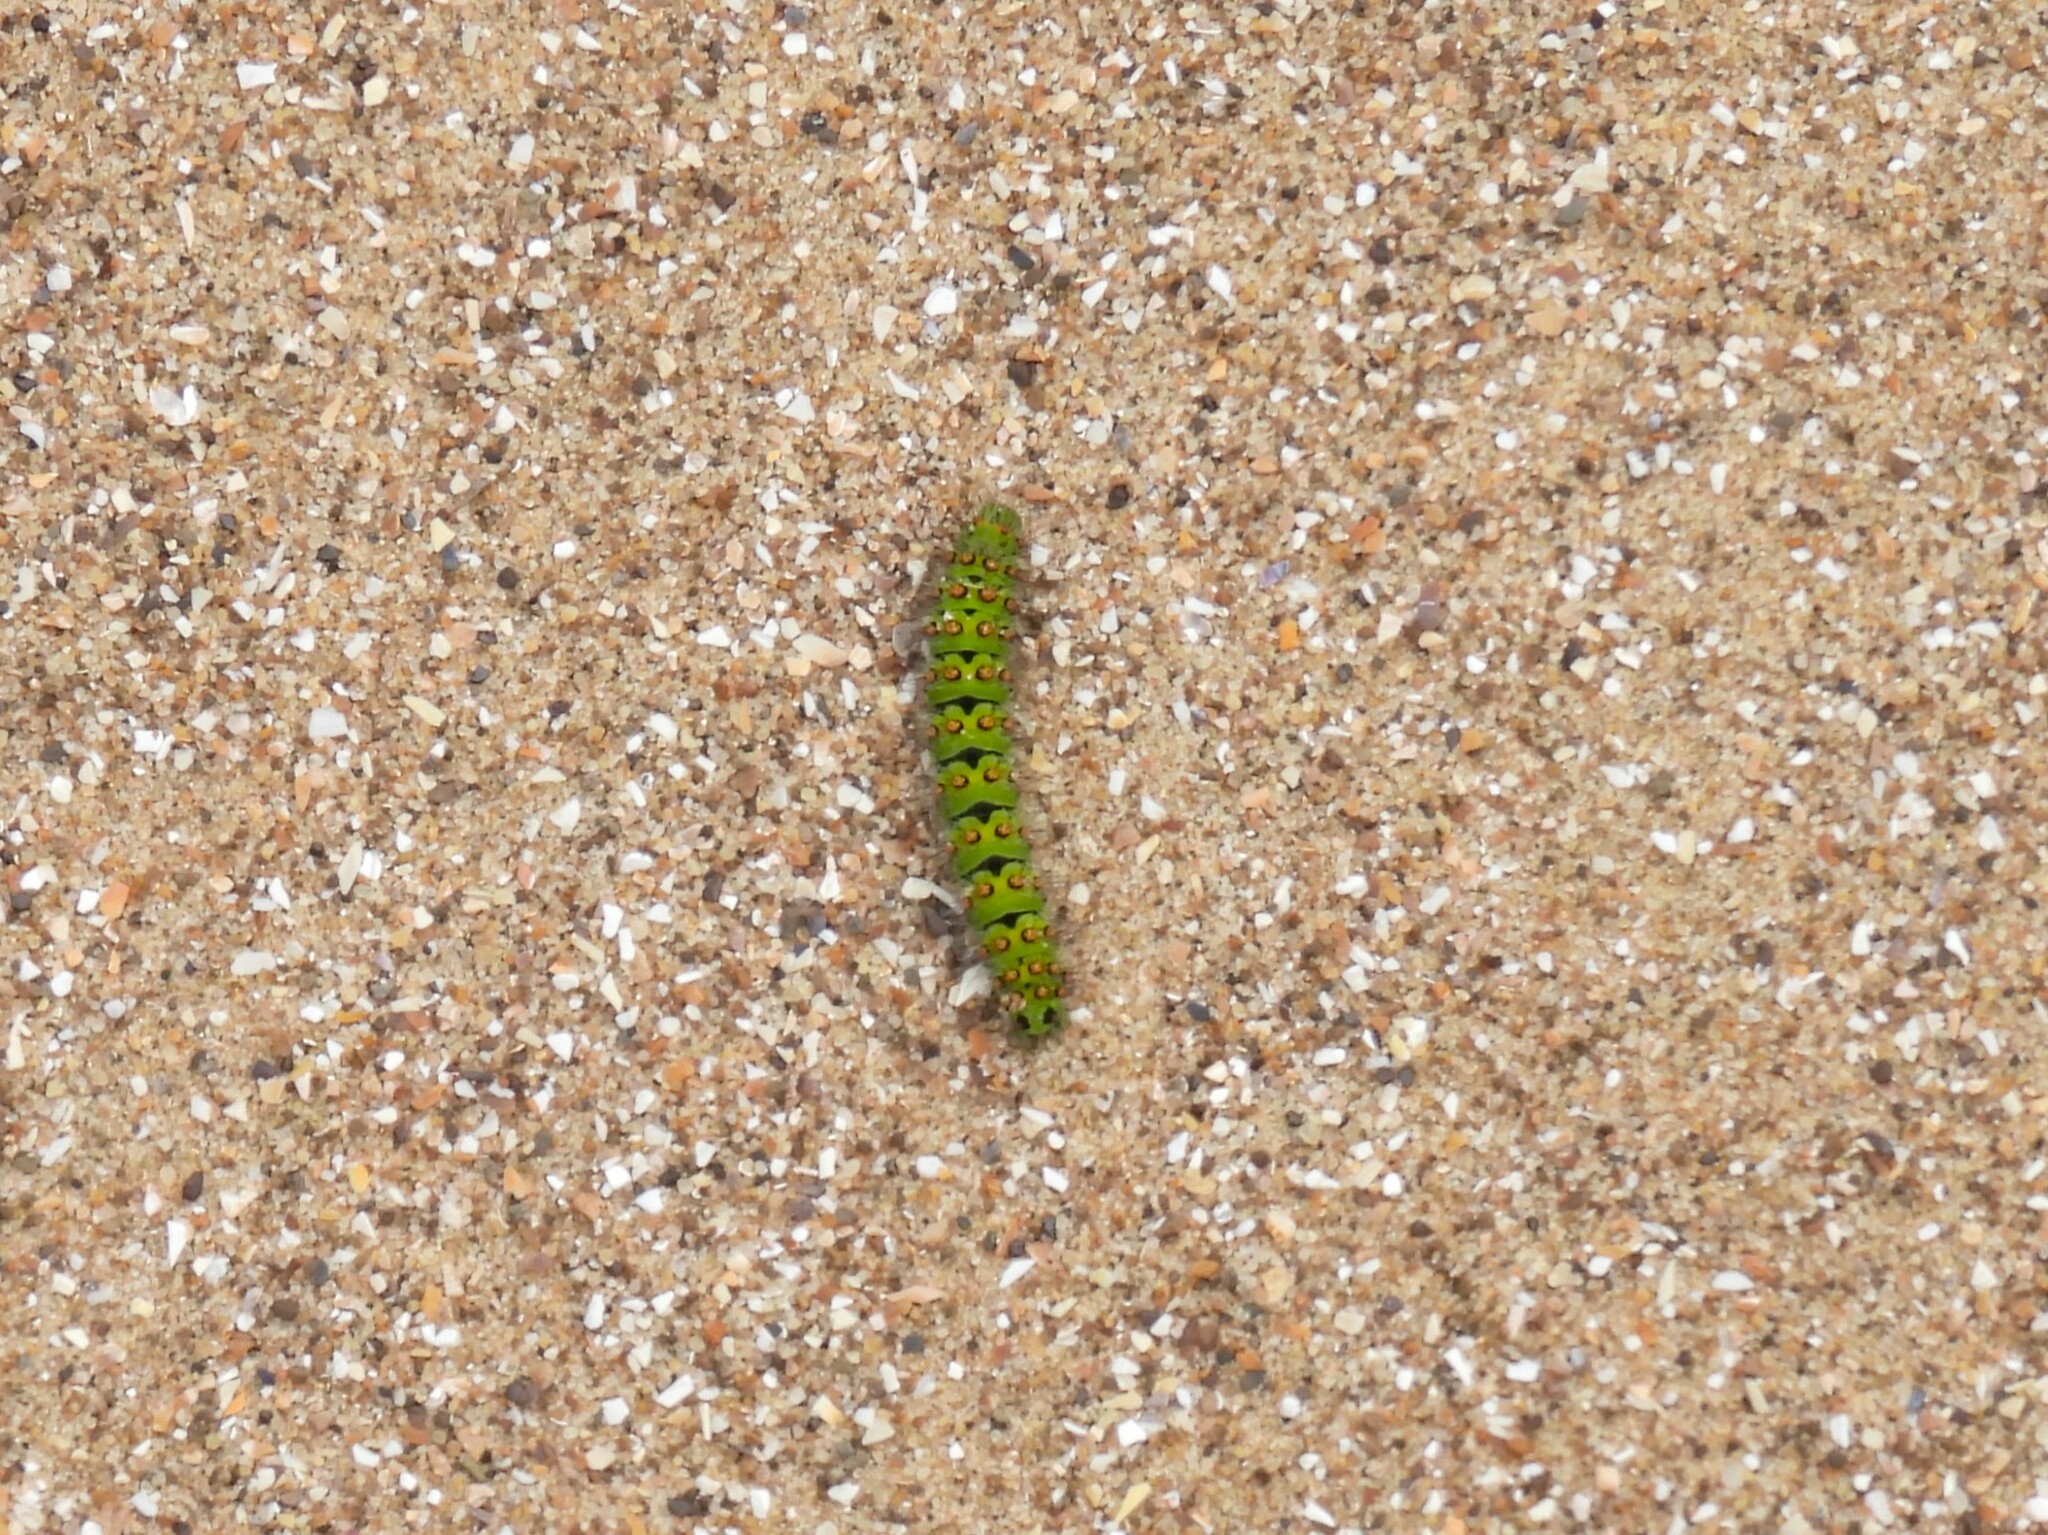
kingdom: Animalia
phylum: Arthropoda
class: Insecta
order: Lepidoptera
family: Saturniidae
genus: Saturnia
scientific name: Saturnia pavonia
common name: Emperor moth
